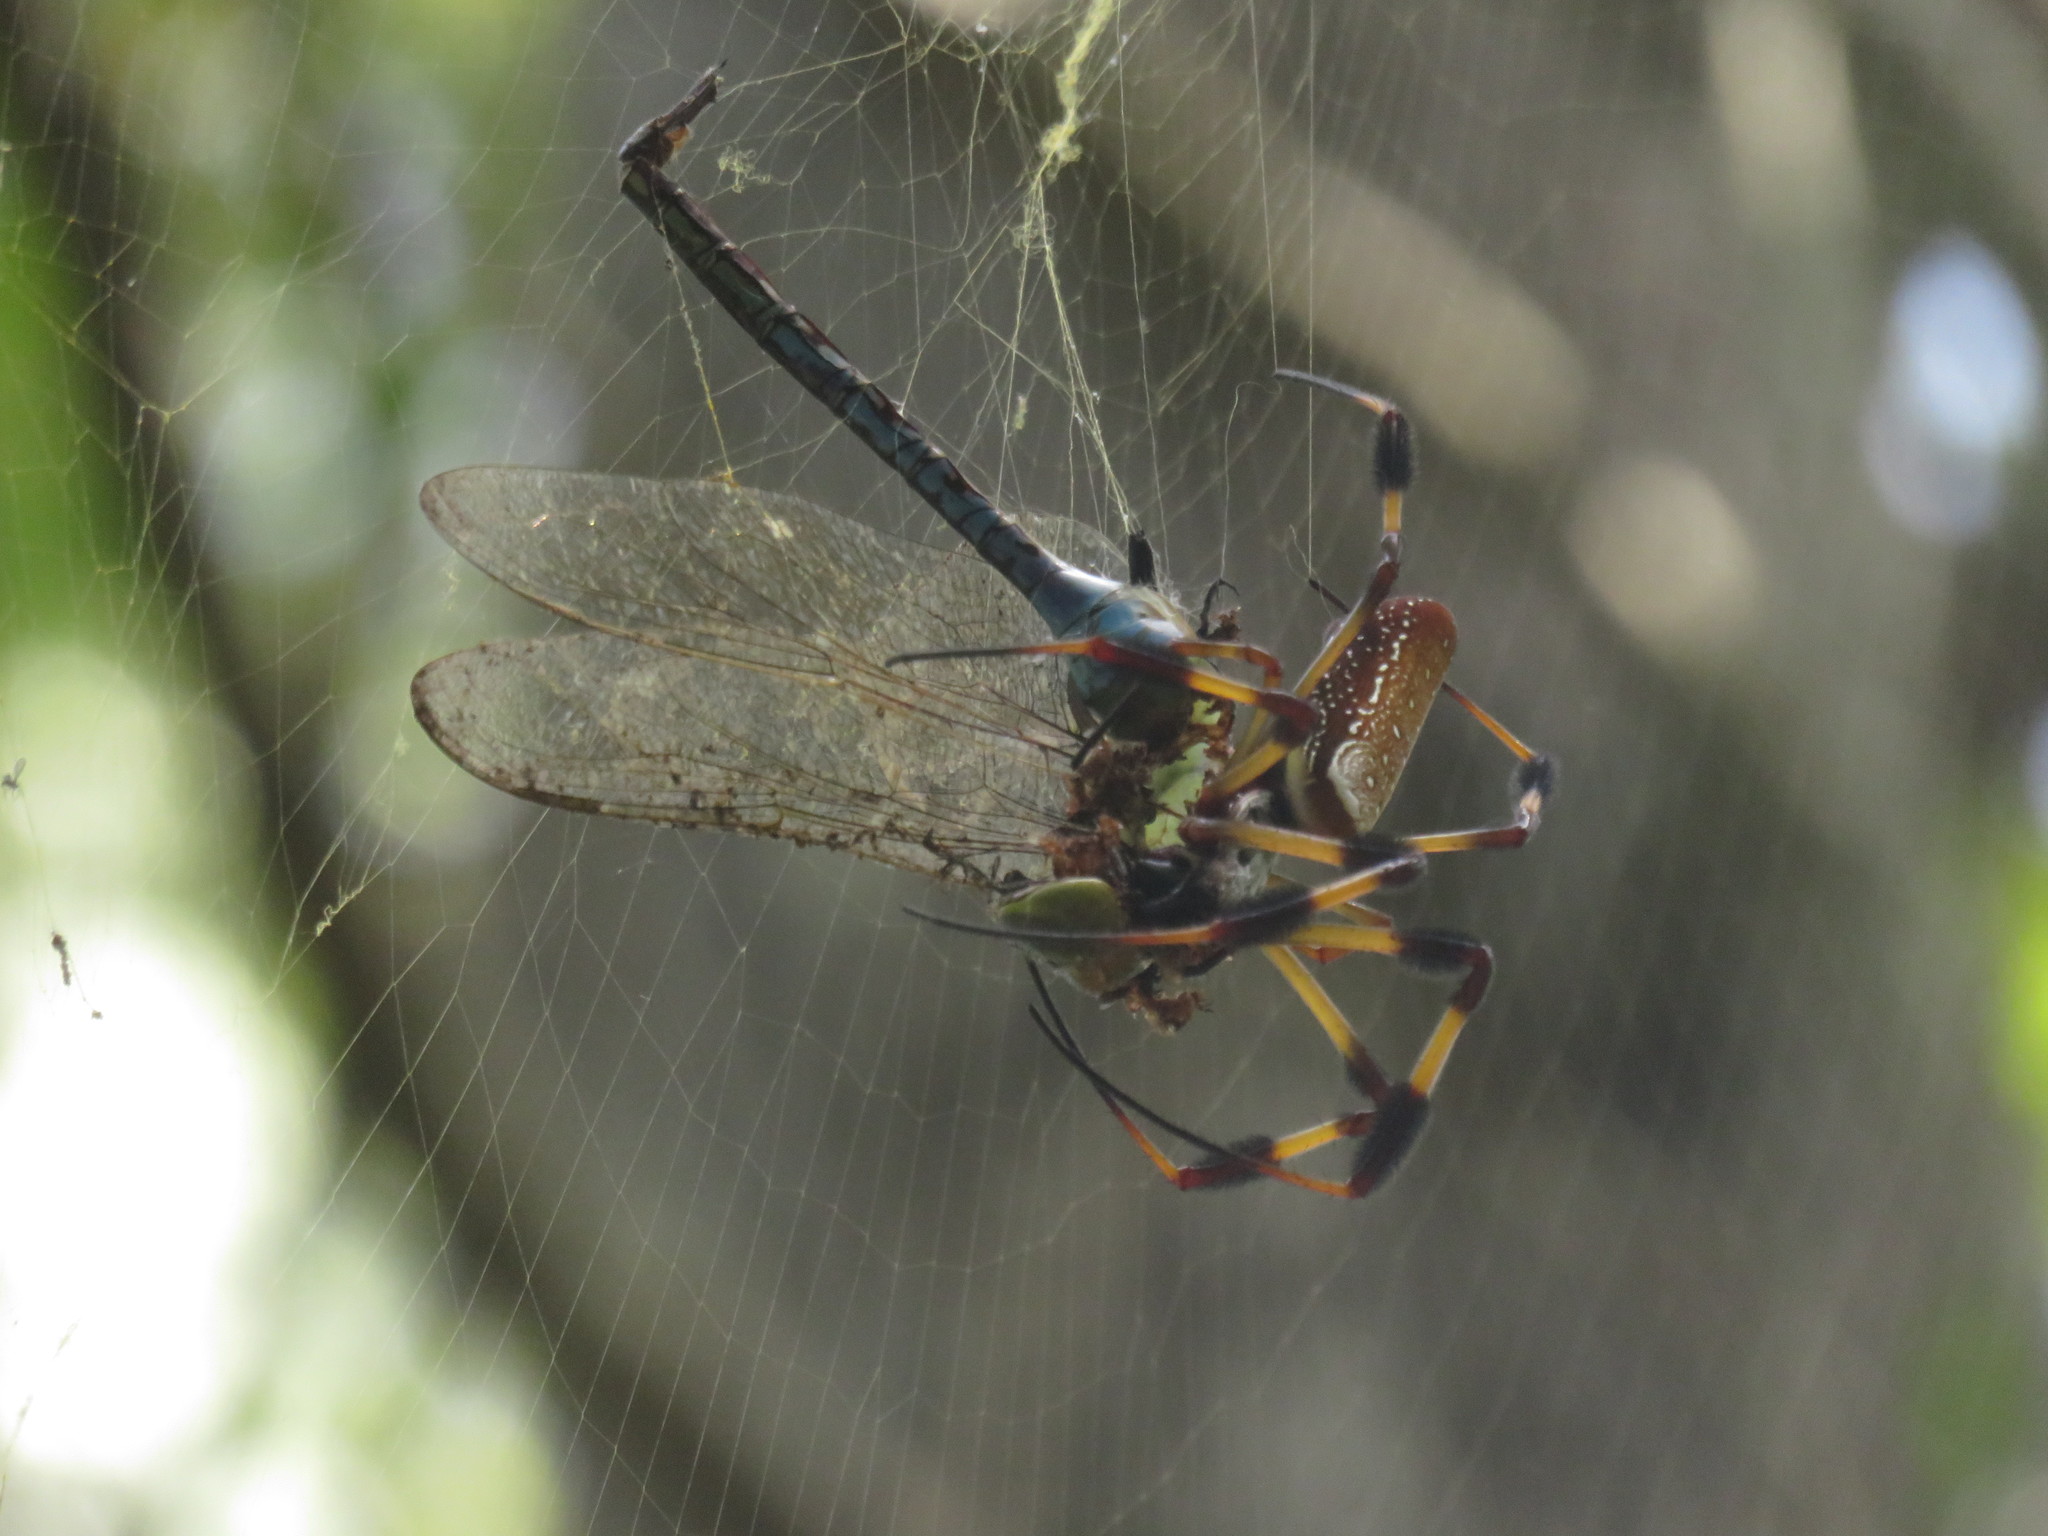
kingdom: Animalia
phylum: Arthropoda
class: Arachnida
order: Araneae
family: Araneidae
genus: Trichonephila
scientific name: Trichonephila clavipes
